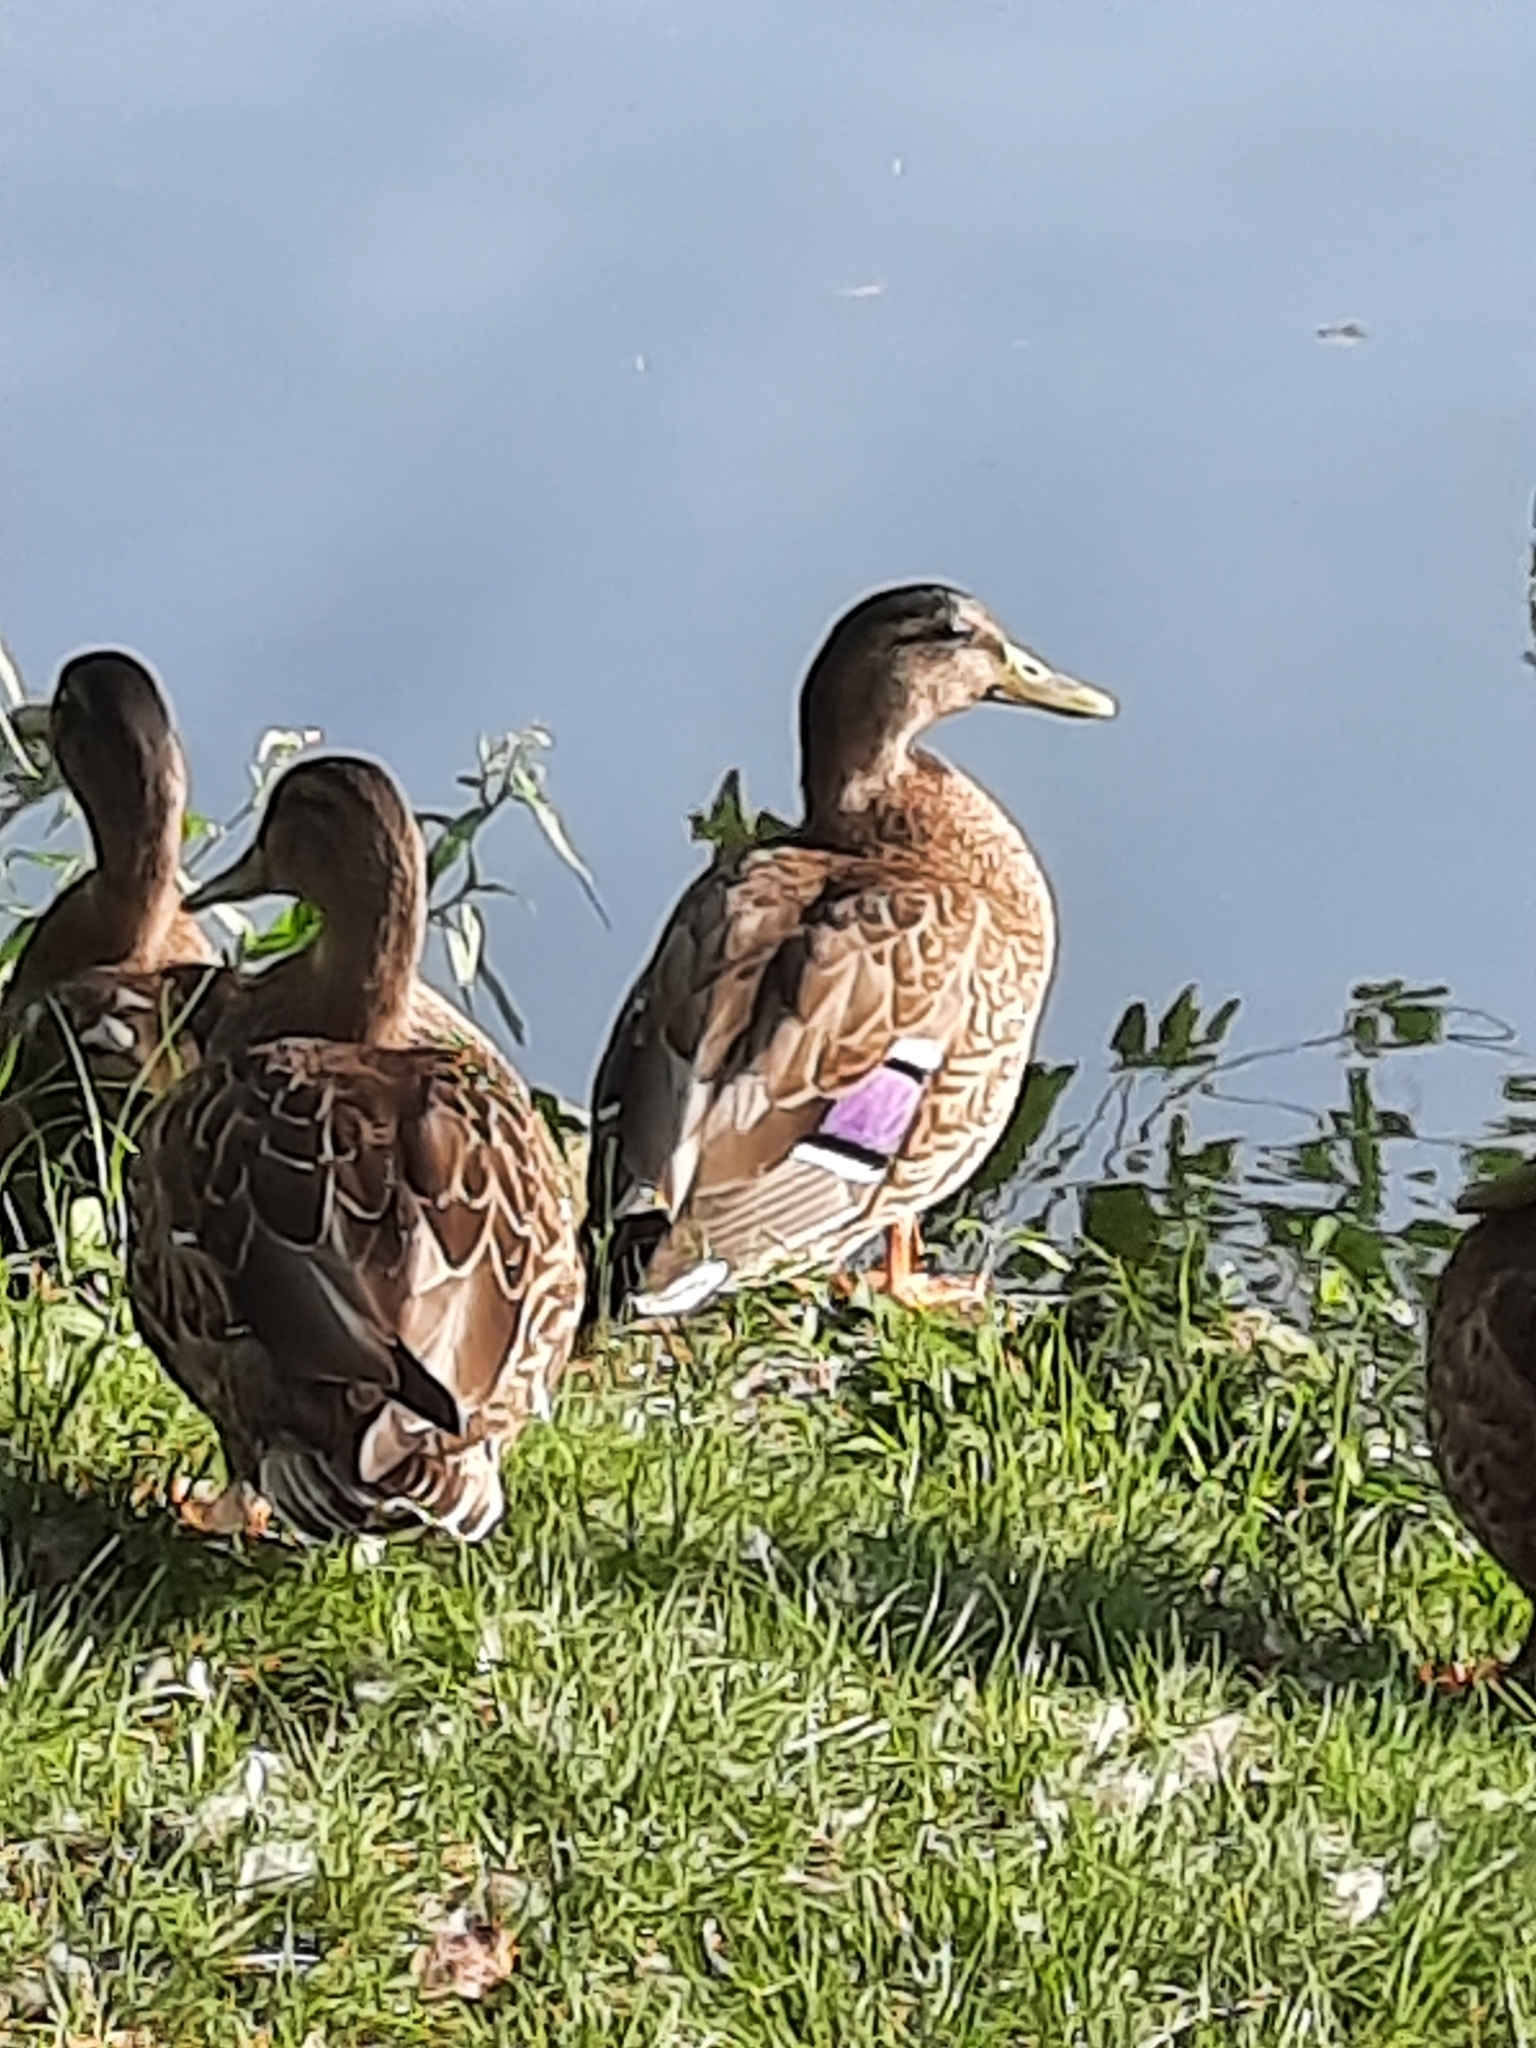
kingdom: Animalia
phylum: Chordata
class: Aves
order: Anseriformes
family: Anatidae
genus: Anas
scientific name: Anas platyrhynchos
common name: Mallard
